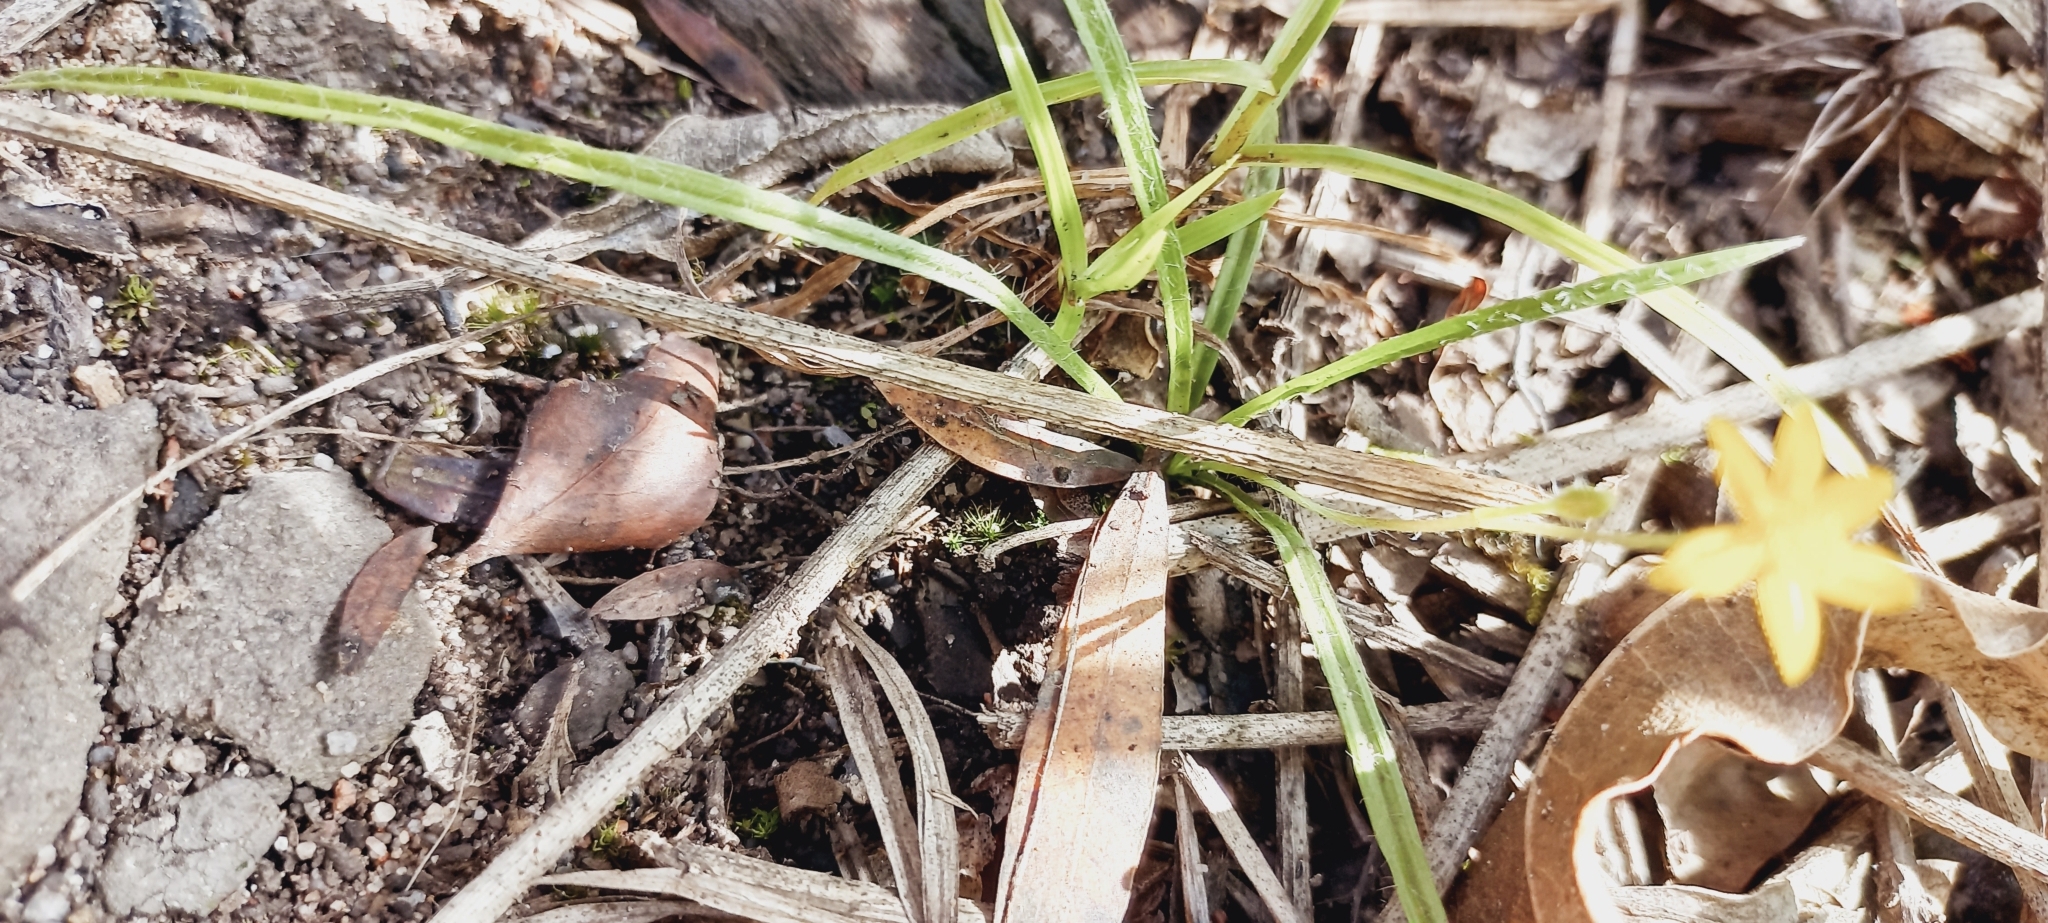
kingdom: Plantae
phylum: Tracheophyta
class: Liliopsida
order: Asparagales
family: Hypoxidaceae
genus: Hypoxis
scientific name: Hypoxis filiformis
